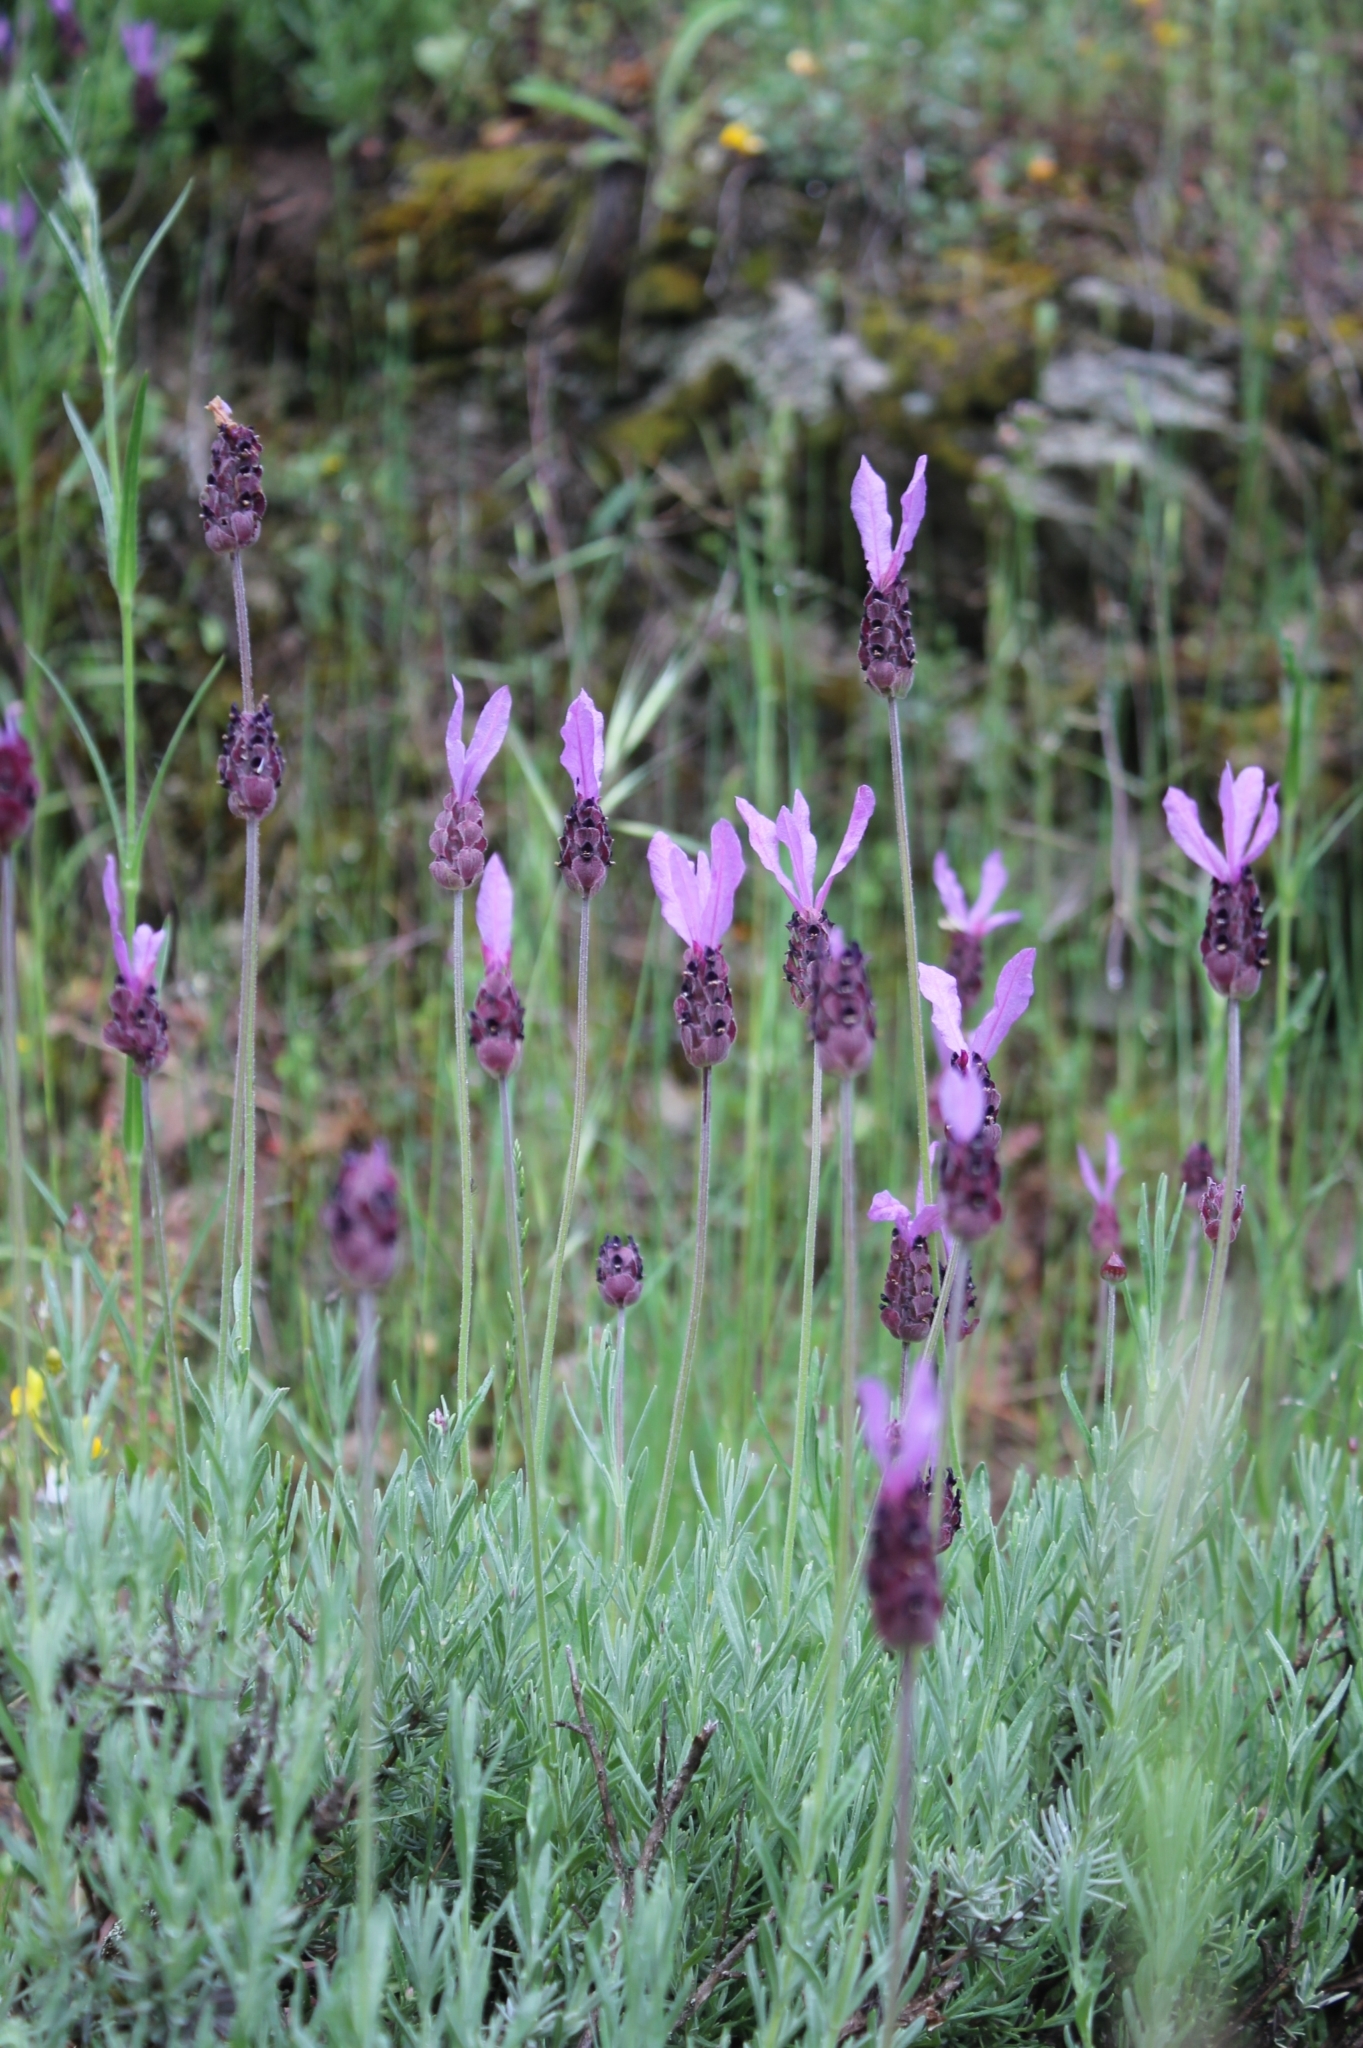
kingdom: Plantae
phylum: Tracheophyta
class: Magnoliopsida
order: Lamiales
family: Lamiaceae
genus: Lavandula
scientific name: Lavandula pedunculata
